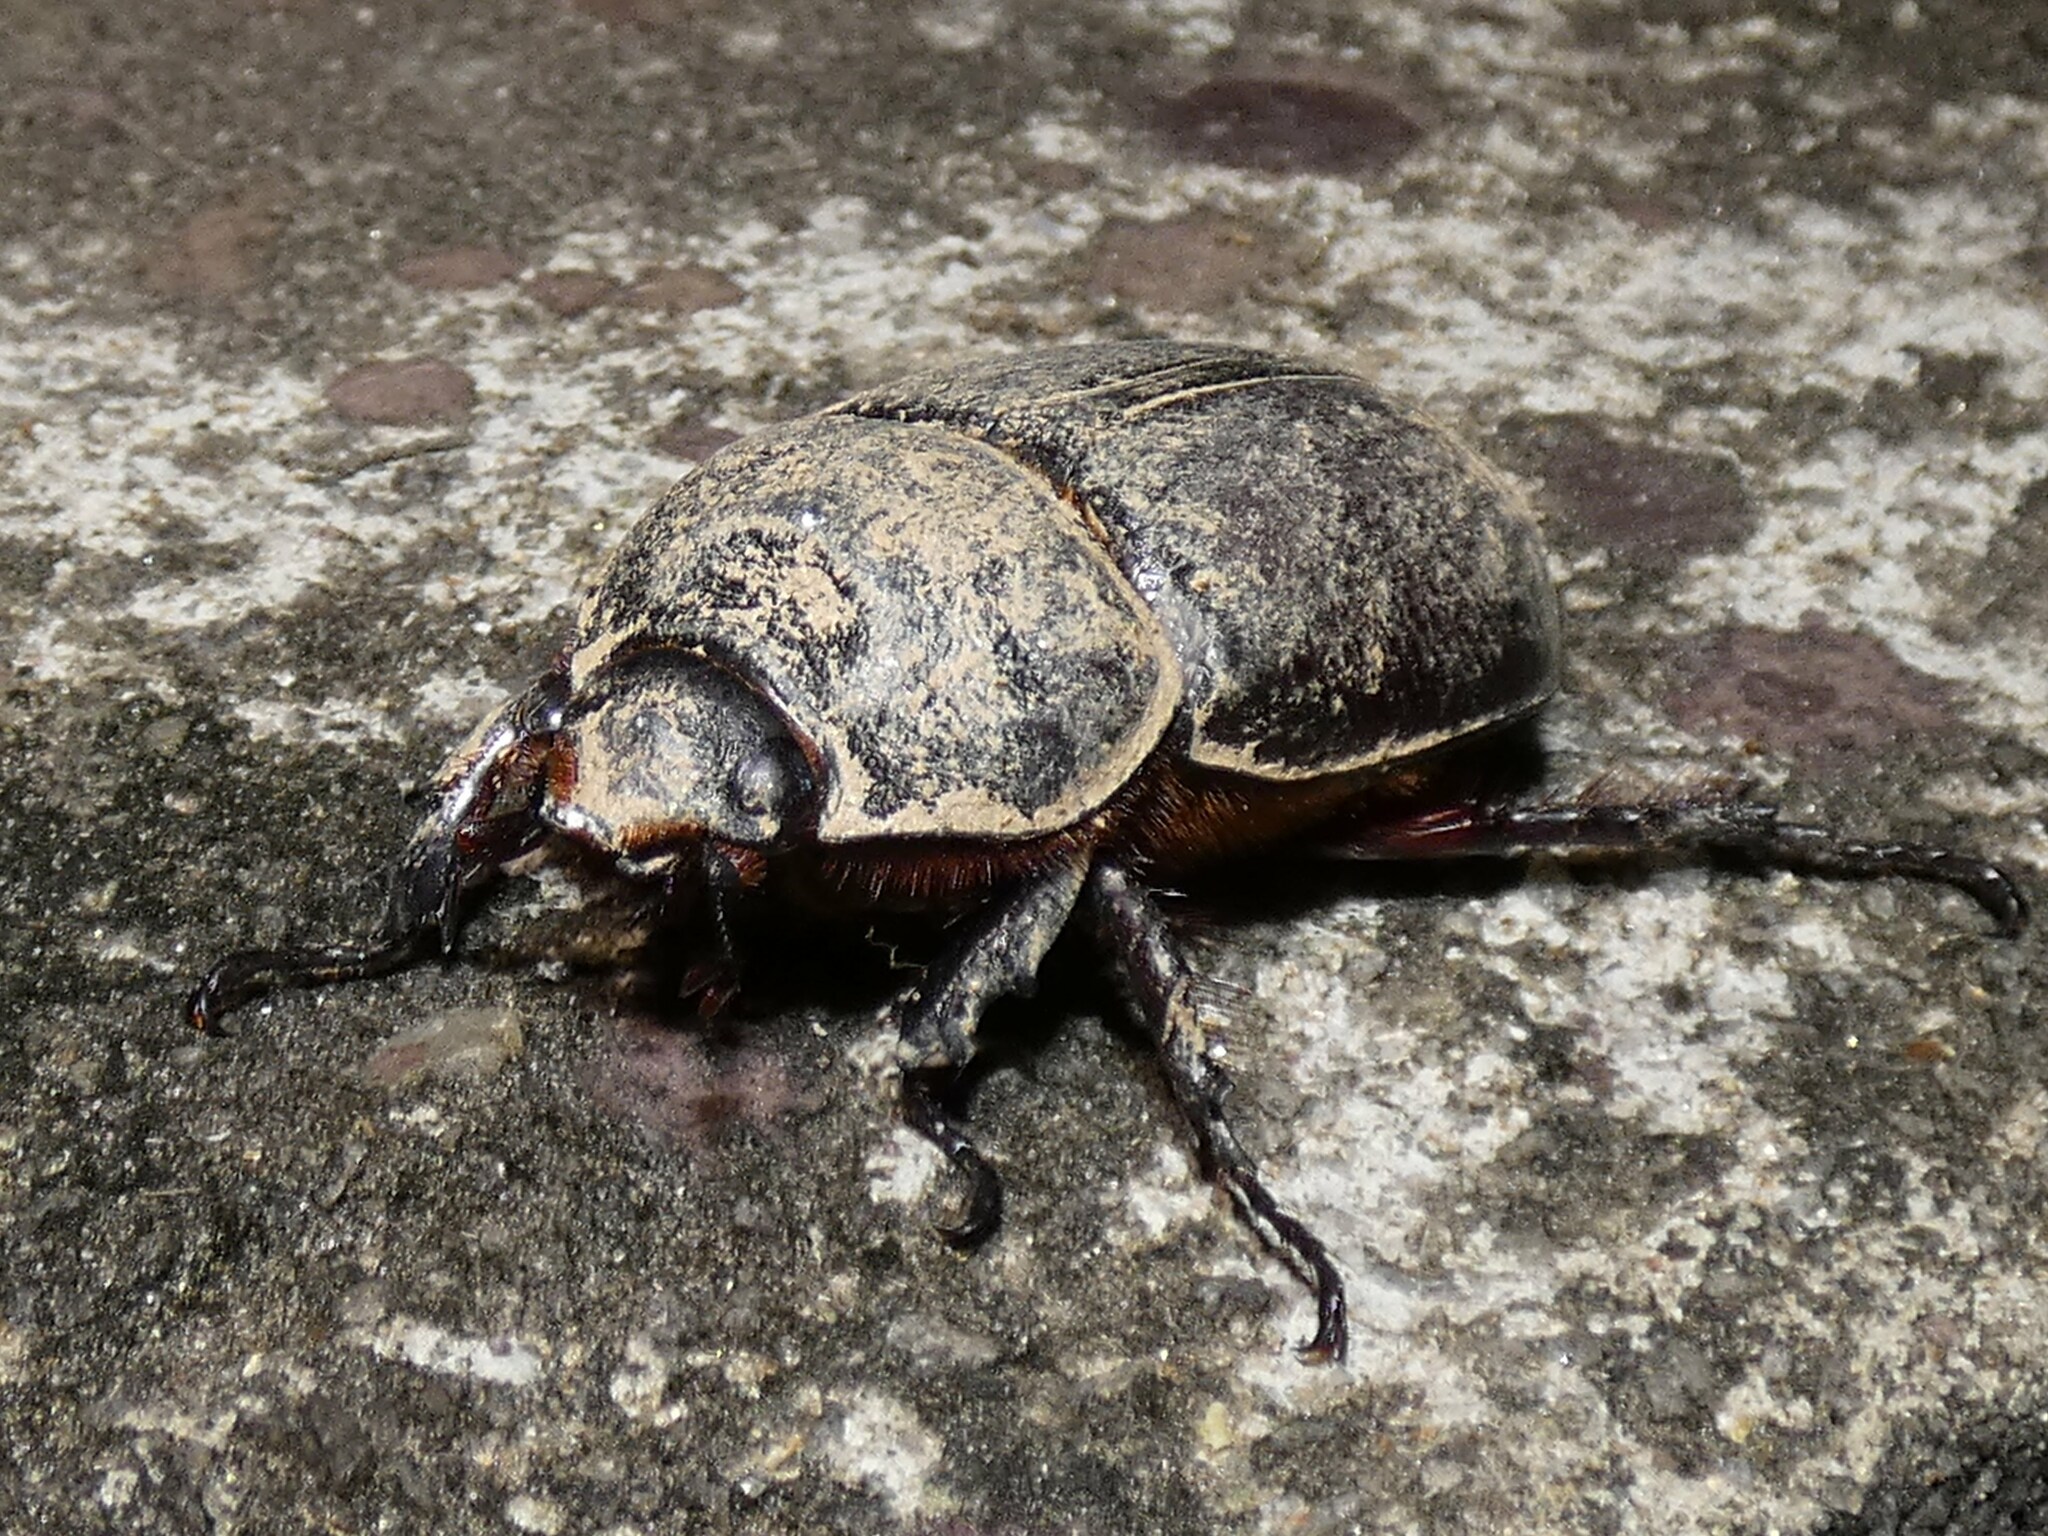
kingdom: Animalia
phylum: Arthropoda
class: Insecta
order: Coleoptera
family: Scarabaeidae
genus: Oryctes
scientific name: Oryctes boas
